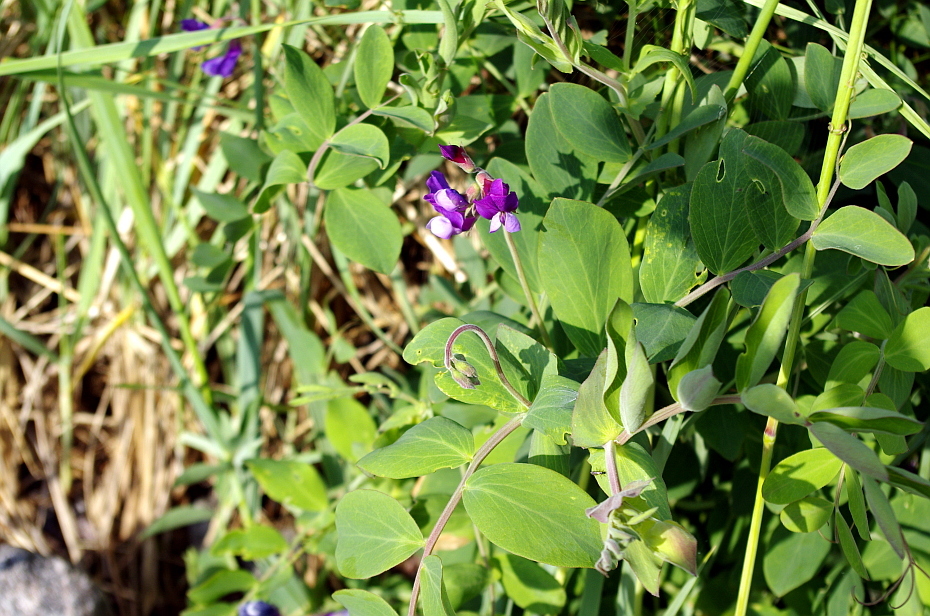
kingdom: Plantae
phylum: Tracheophyta
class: Magnoliopsida
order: Fabales
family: Fabaceae
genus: Lathyrus
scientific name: Lathyrus japonicus
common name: Sea pea
